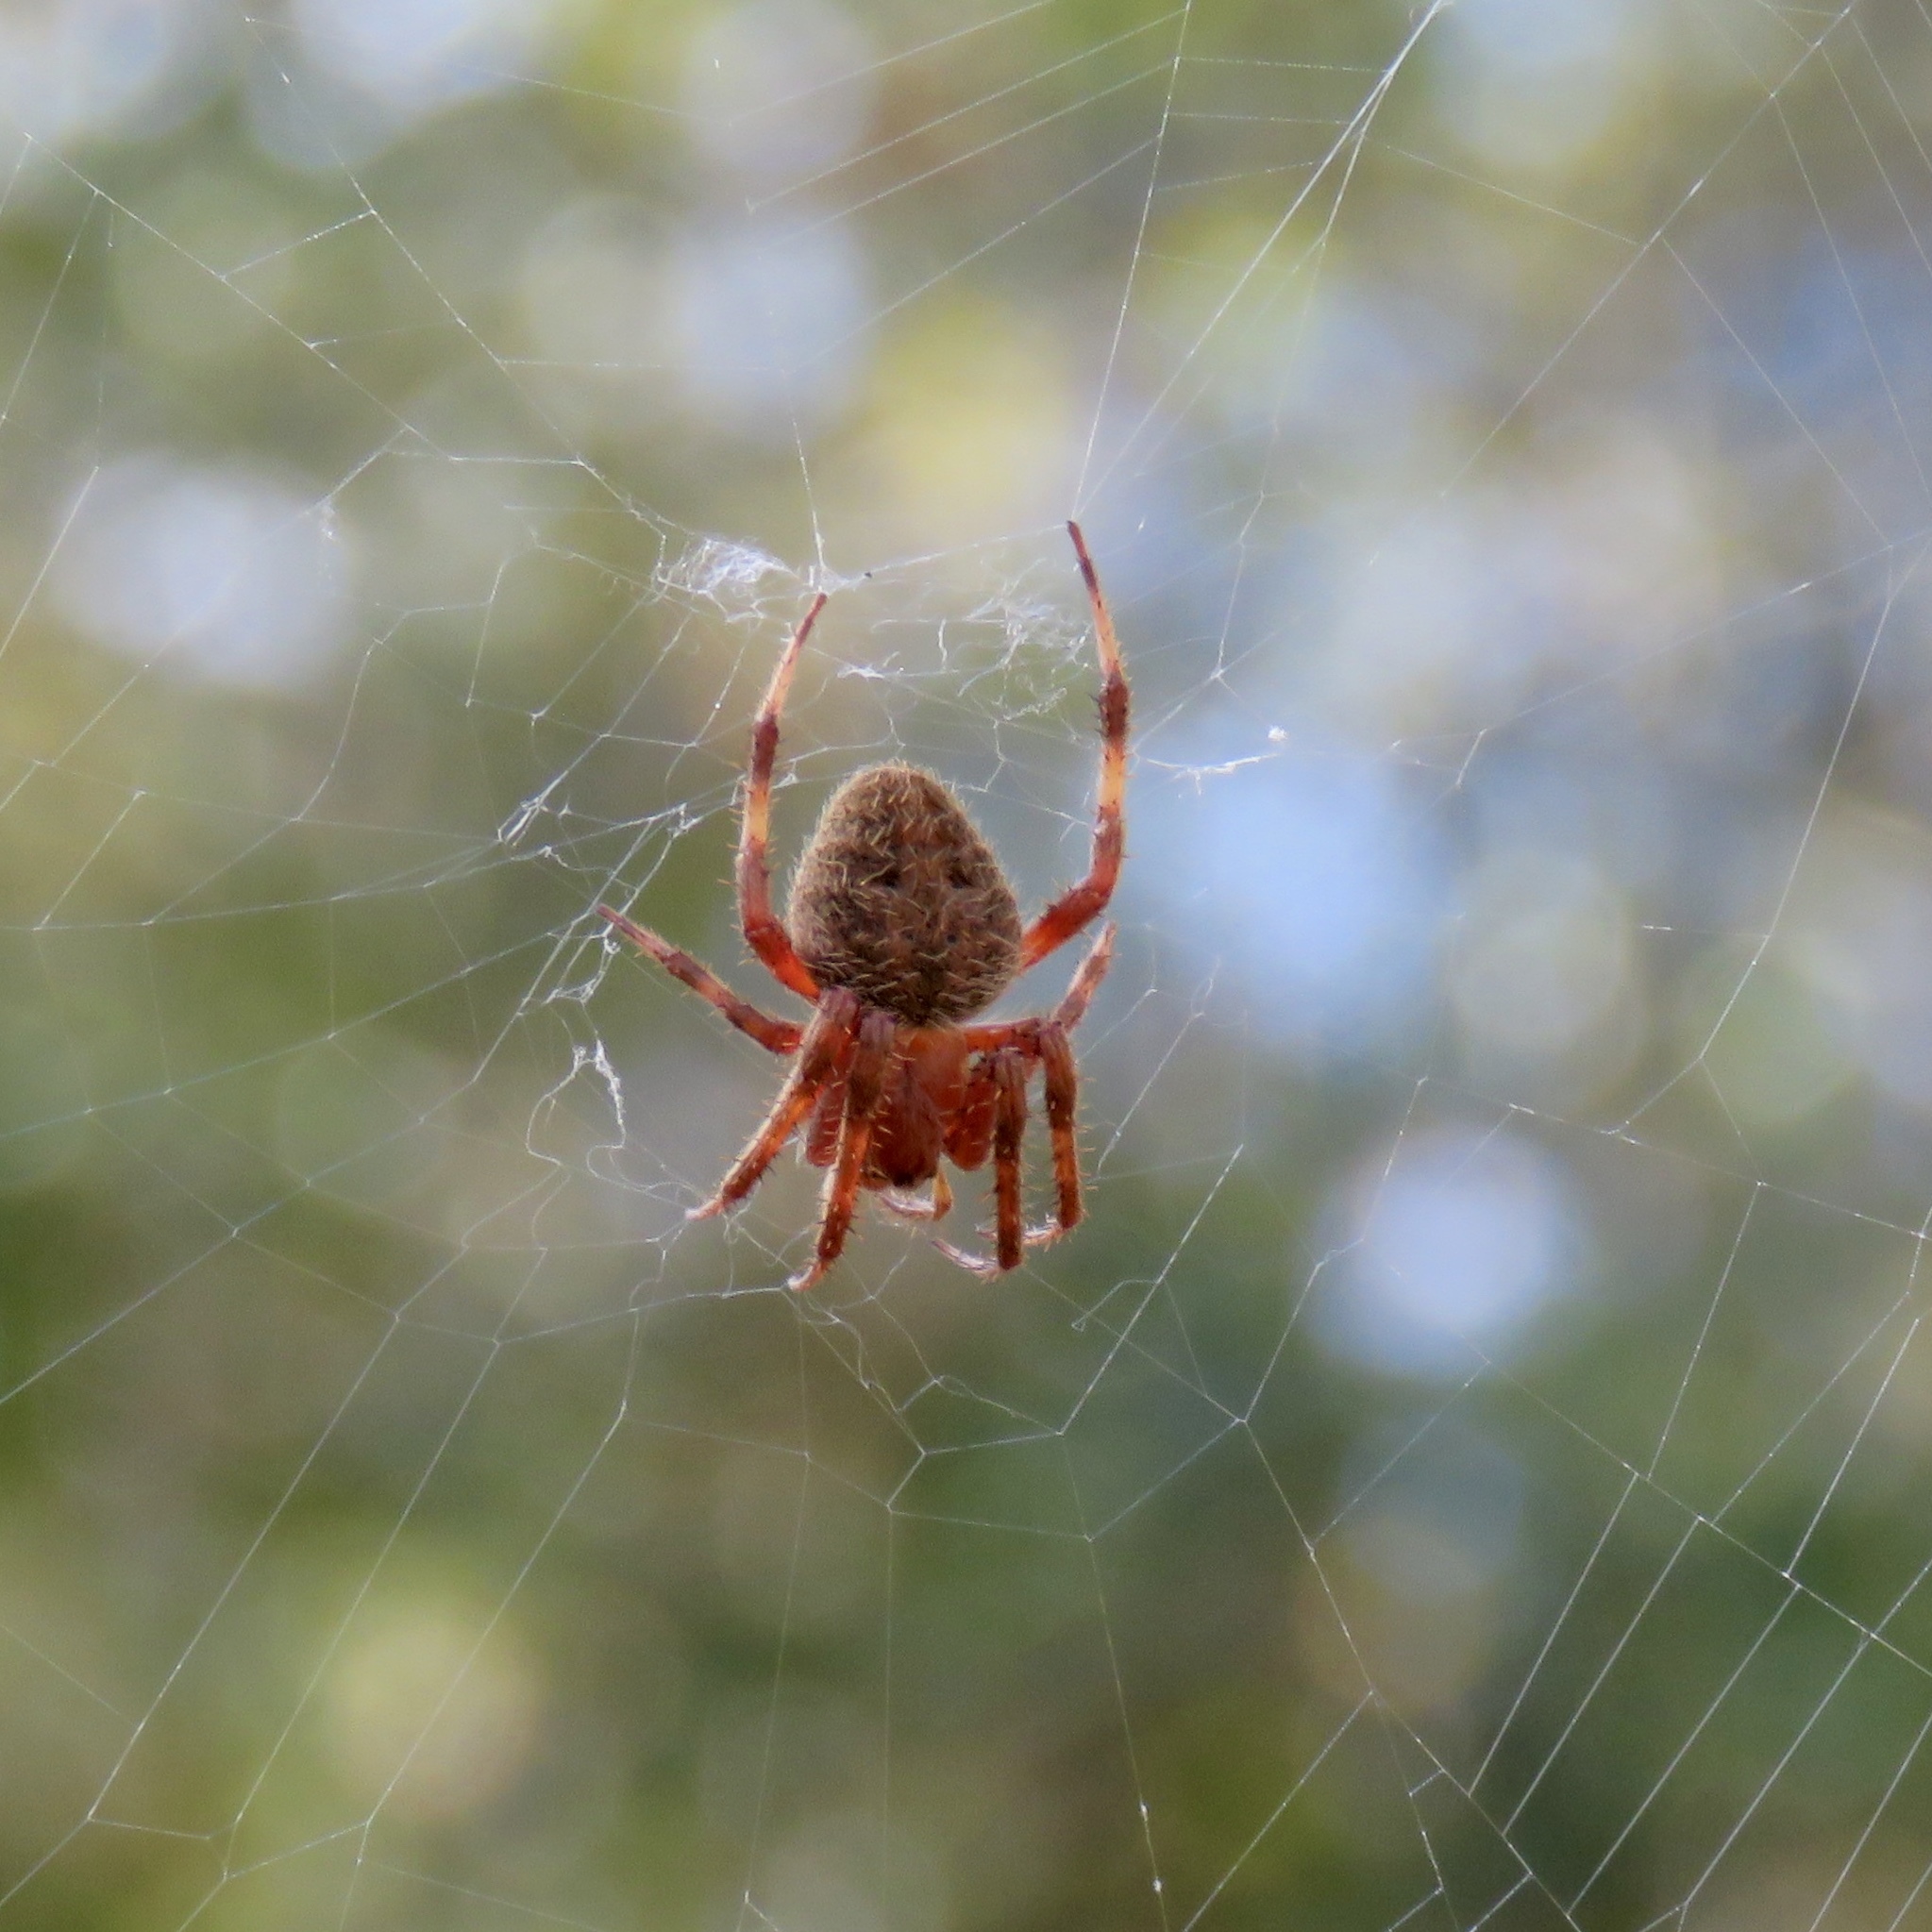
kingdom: Animalia
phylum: Arthropoda
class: Arachnida
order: Araneae
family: Araneidae
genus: Neoscona
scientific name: Neoscona crucifera
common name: Spotted orbweaver
